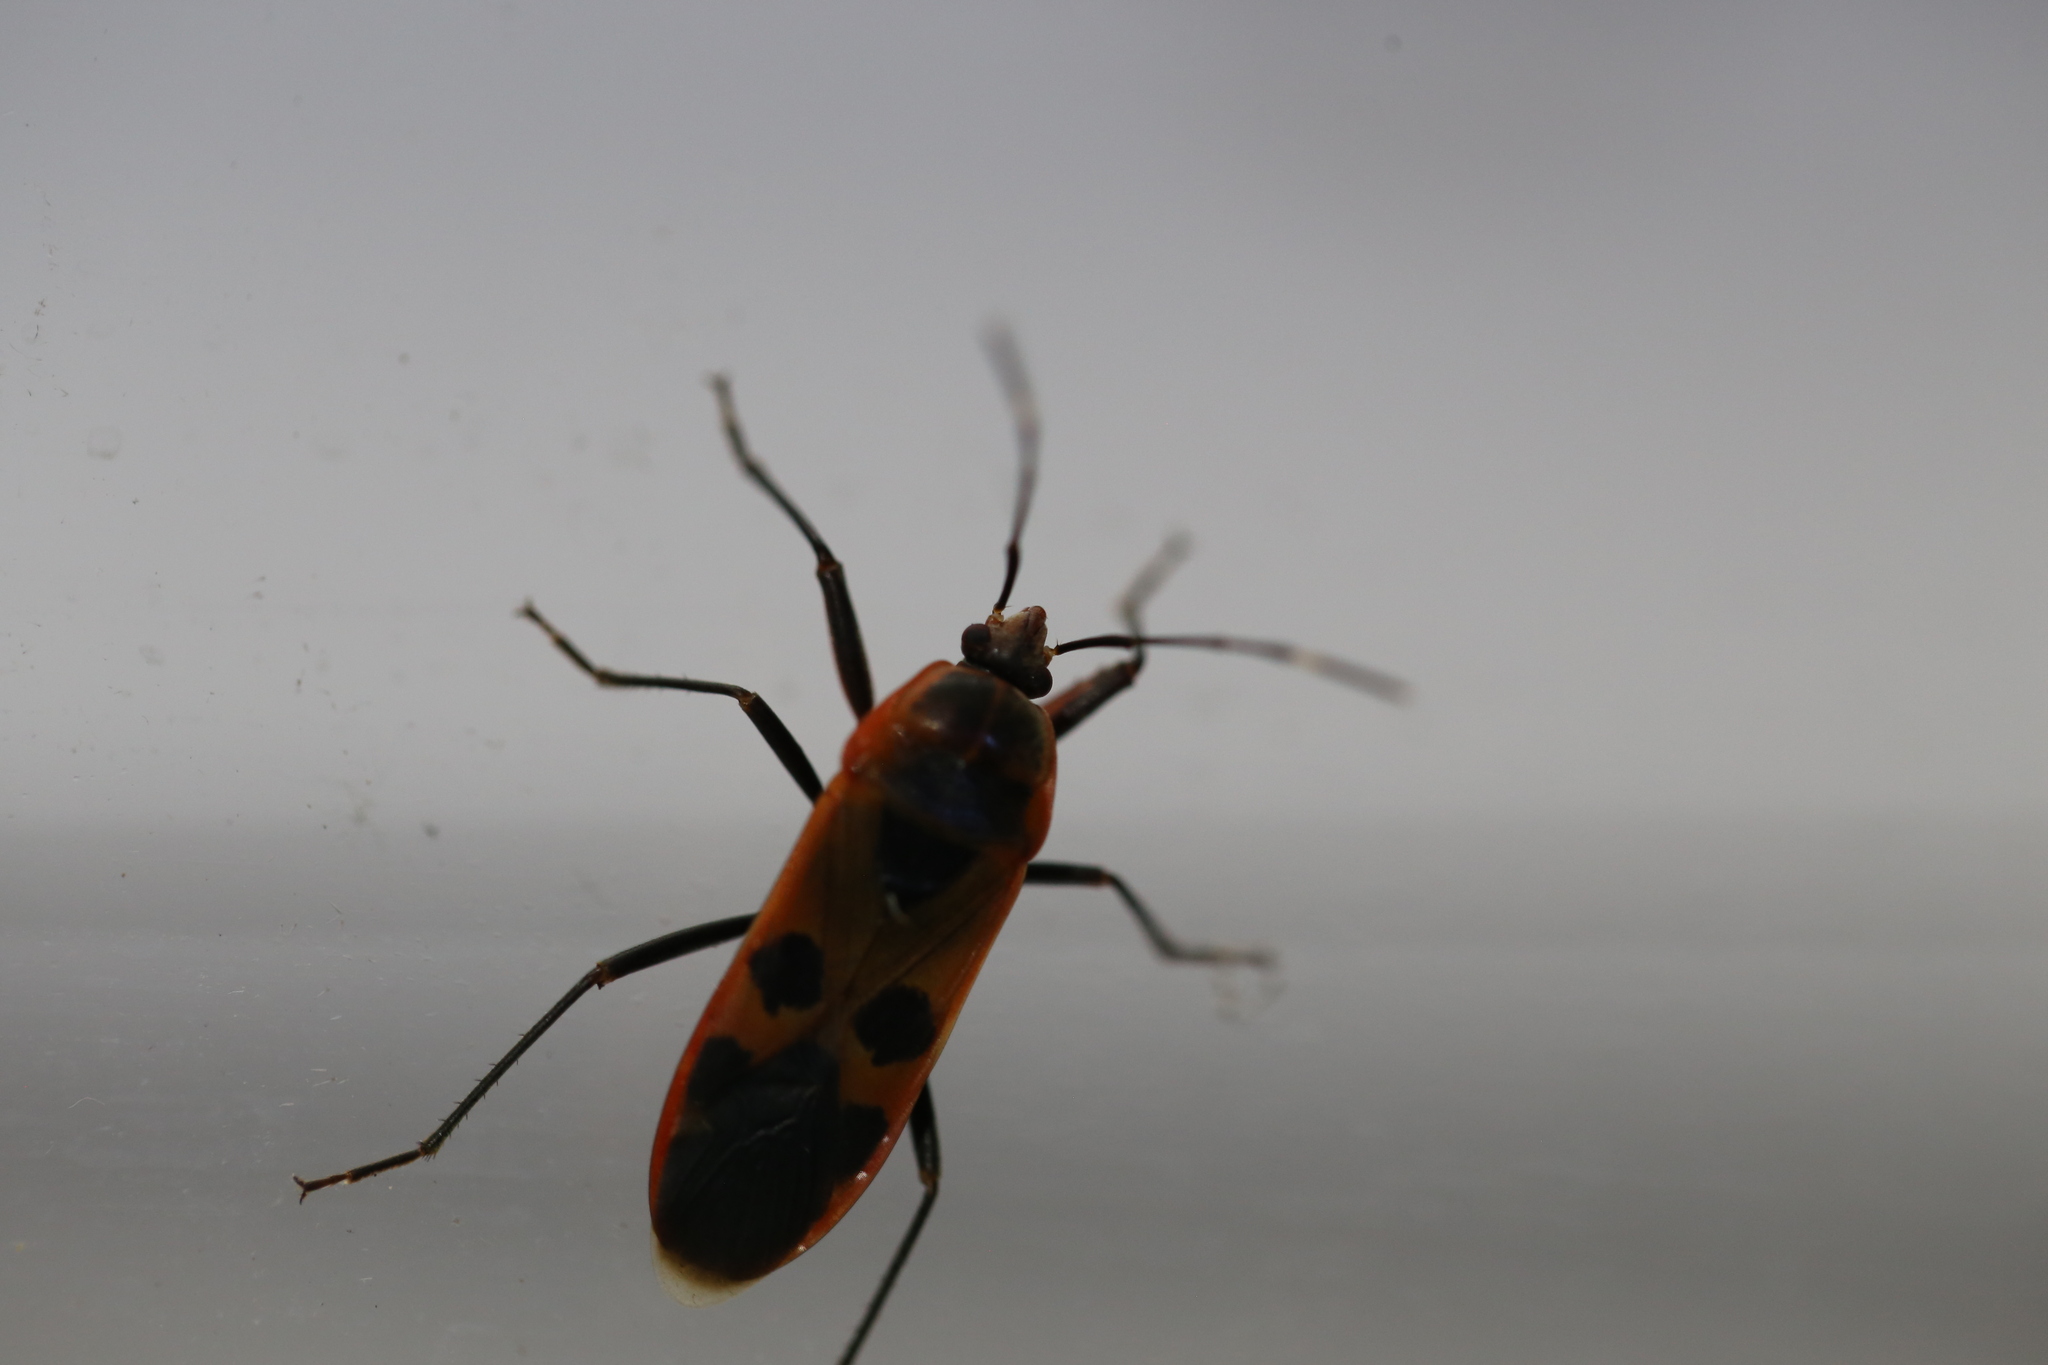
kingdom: Animalia
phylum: Arthropoda
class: Insecta
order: Hemiptera
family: Largidae
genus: Physopelta
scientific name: Physopelta gutta
